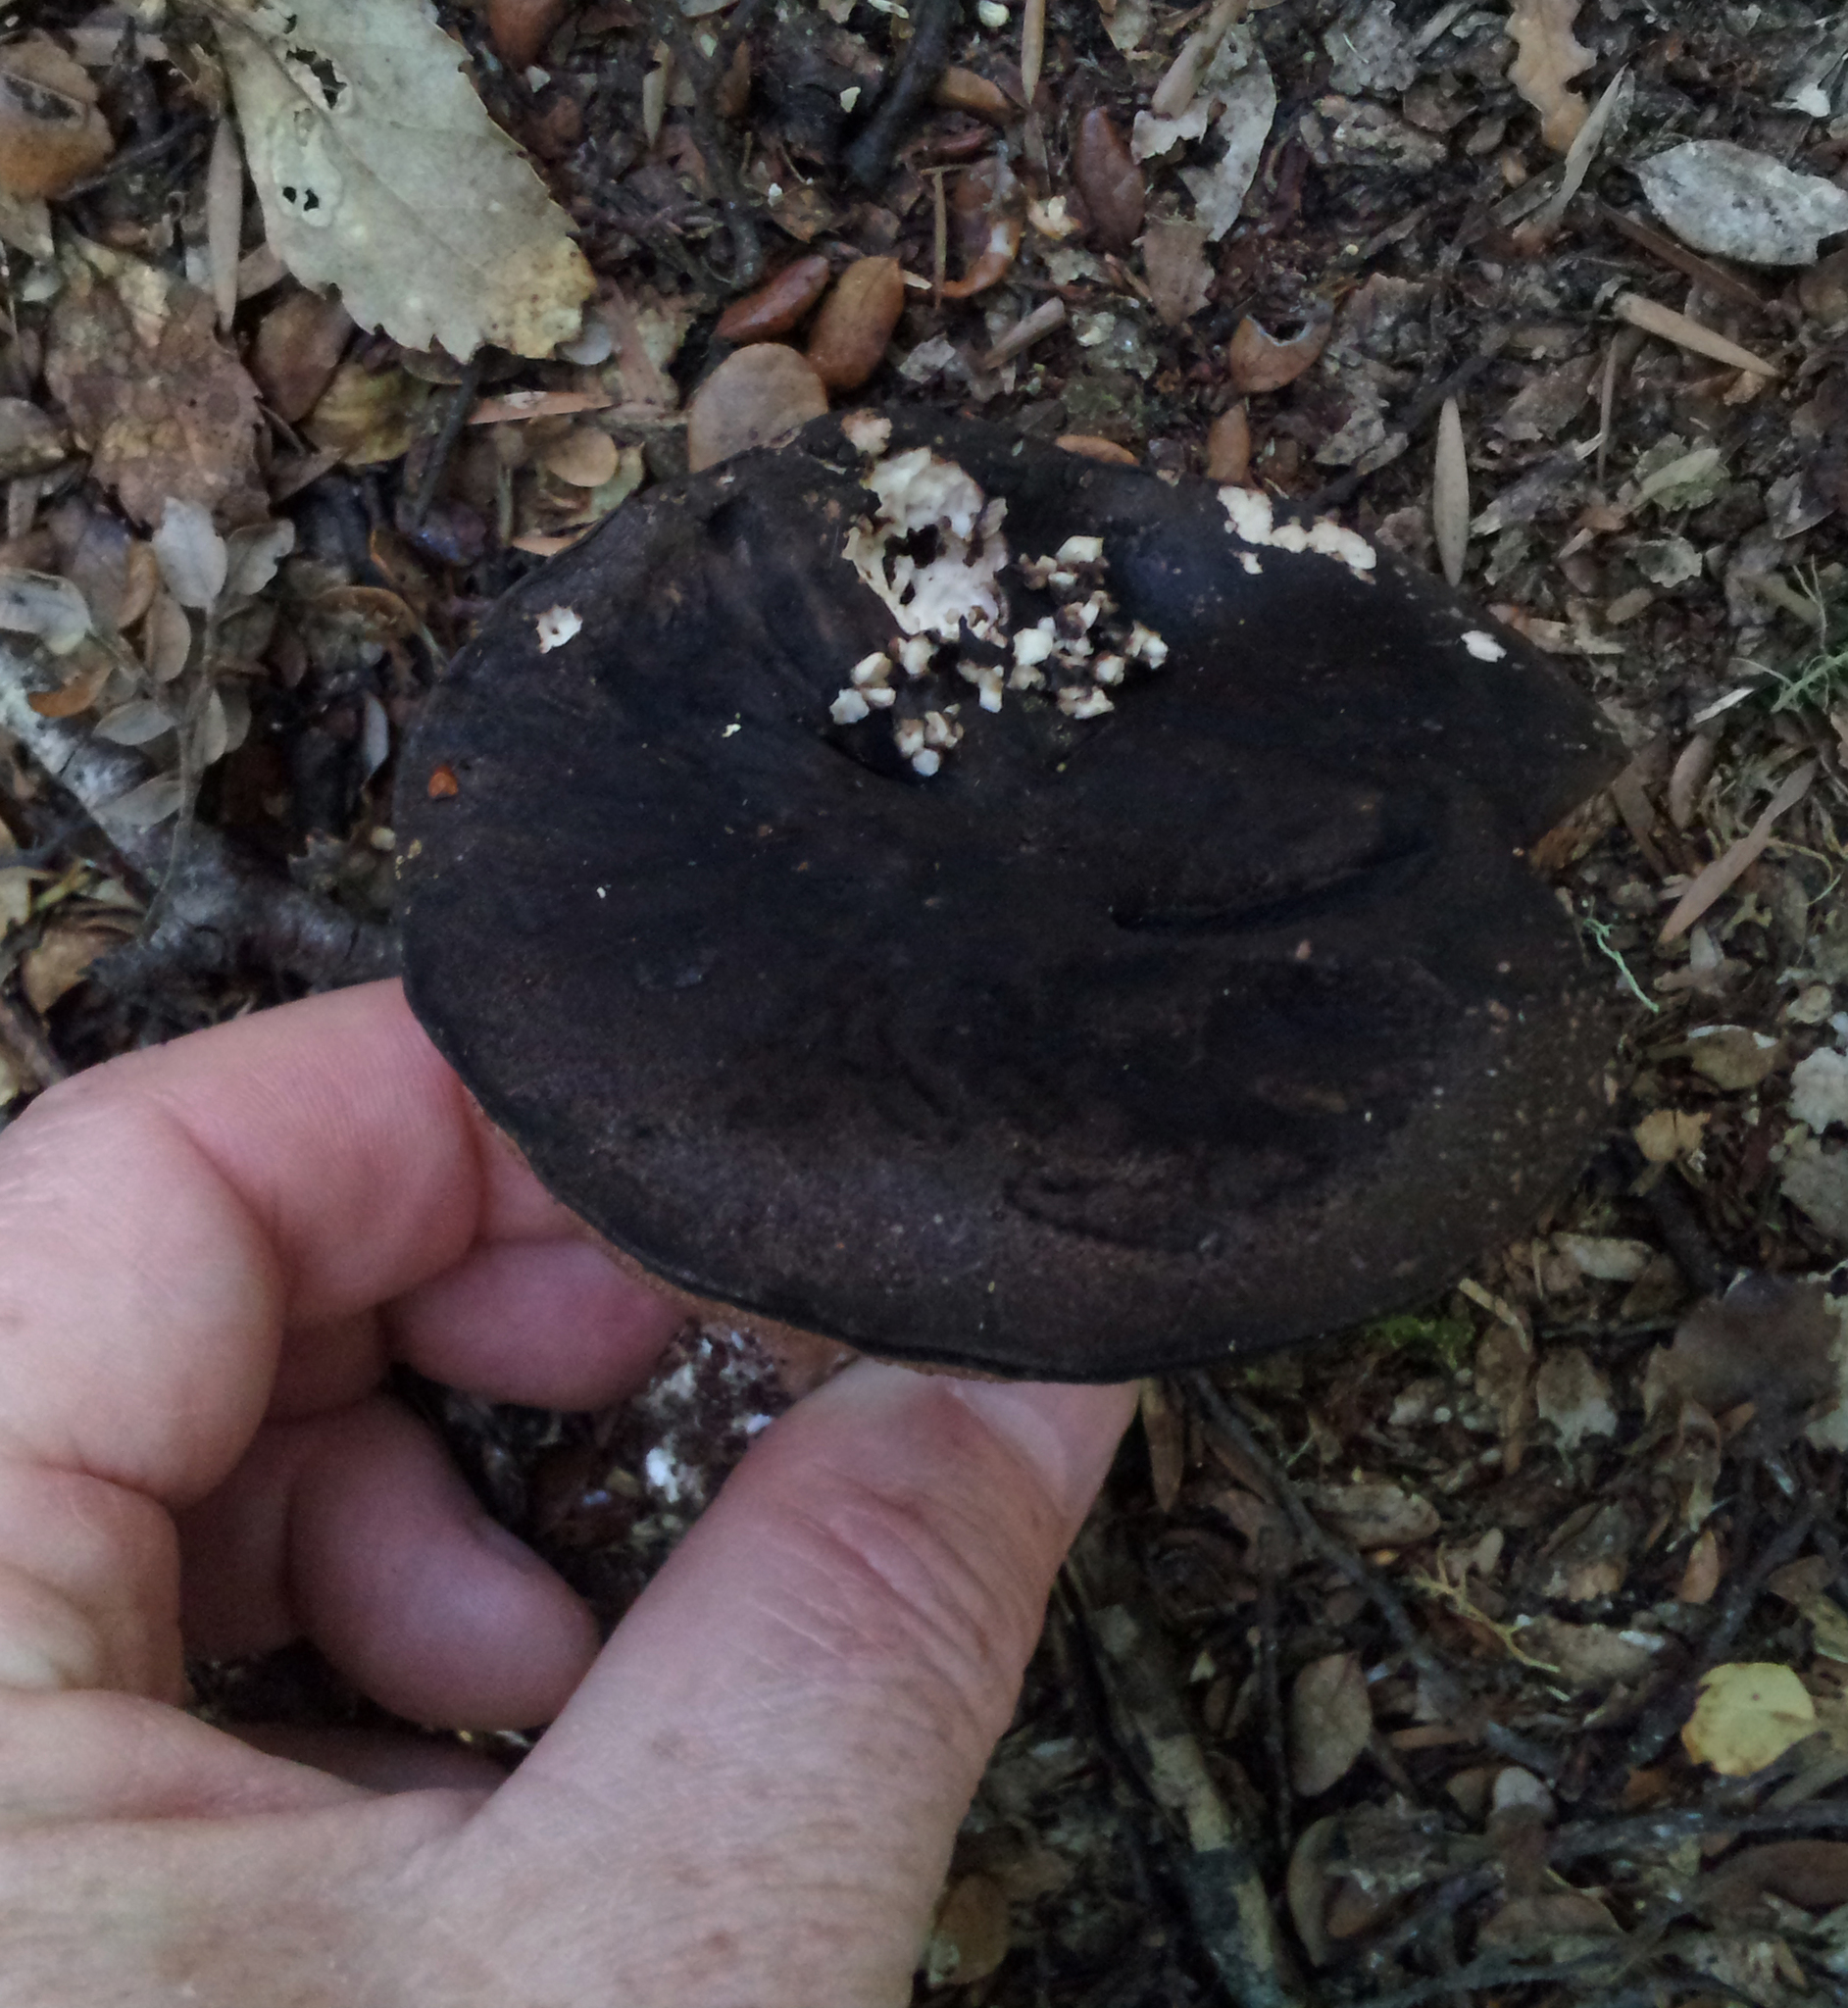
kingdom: Fungi
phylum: Basidiomycota
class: Agaricomycetes
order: Boletales
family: Boletaceae
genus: Porphyrellus
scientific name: Porphyrellus formosus
